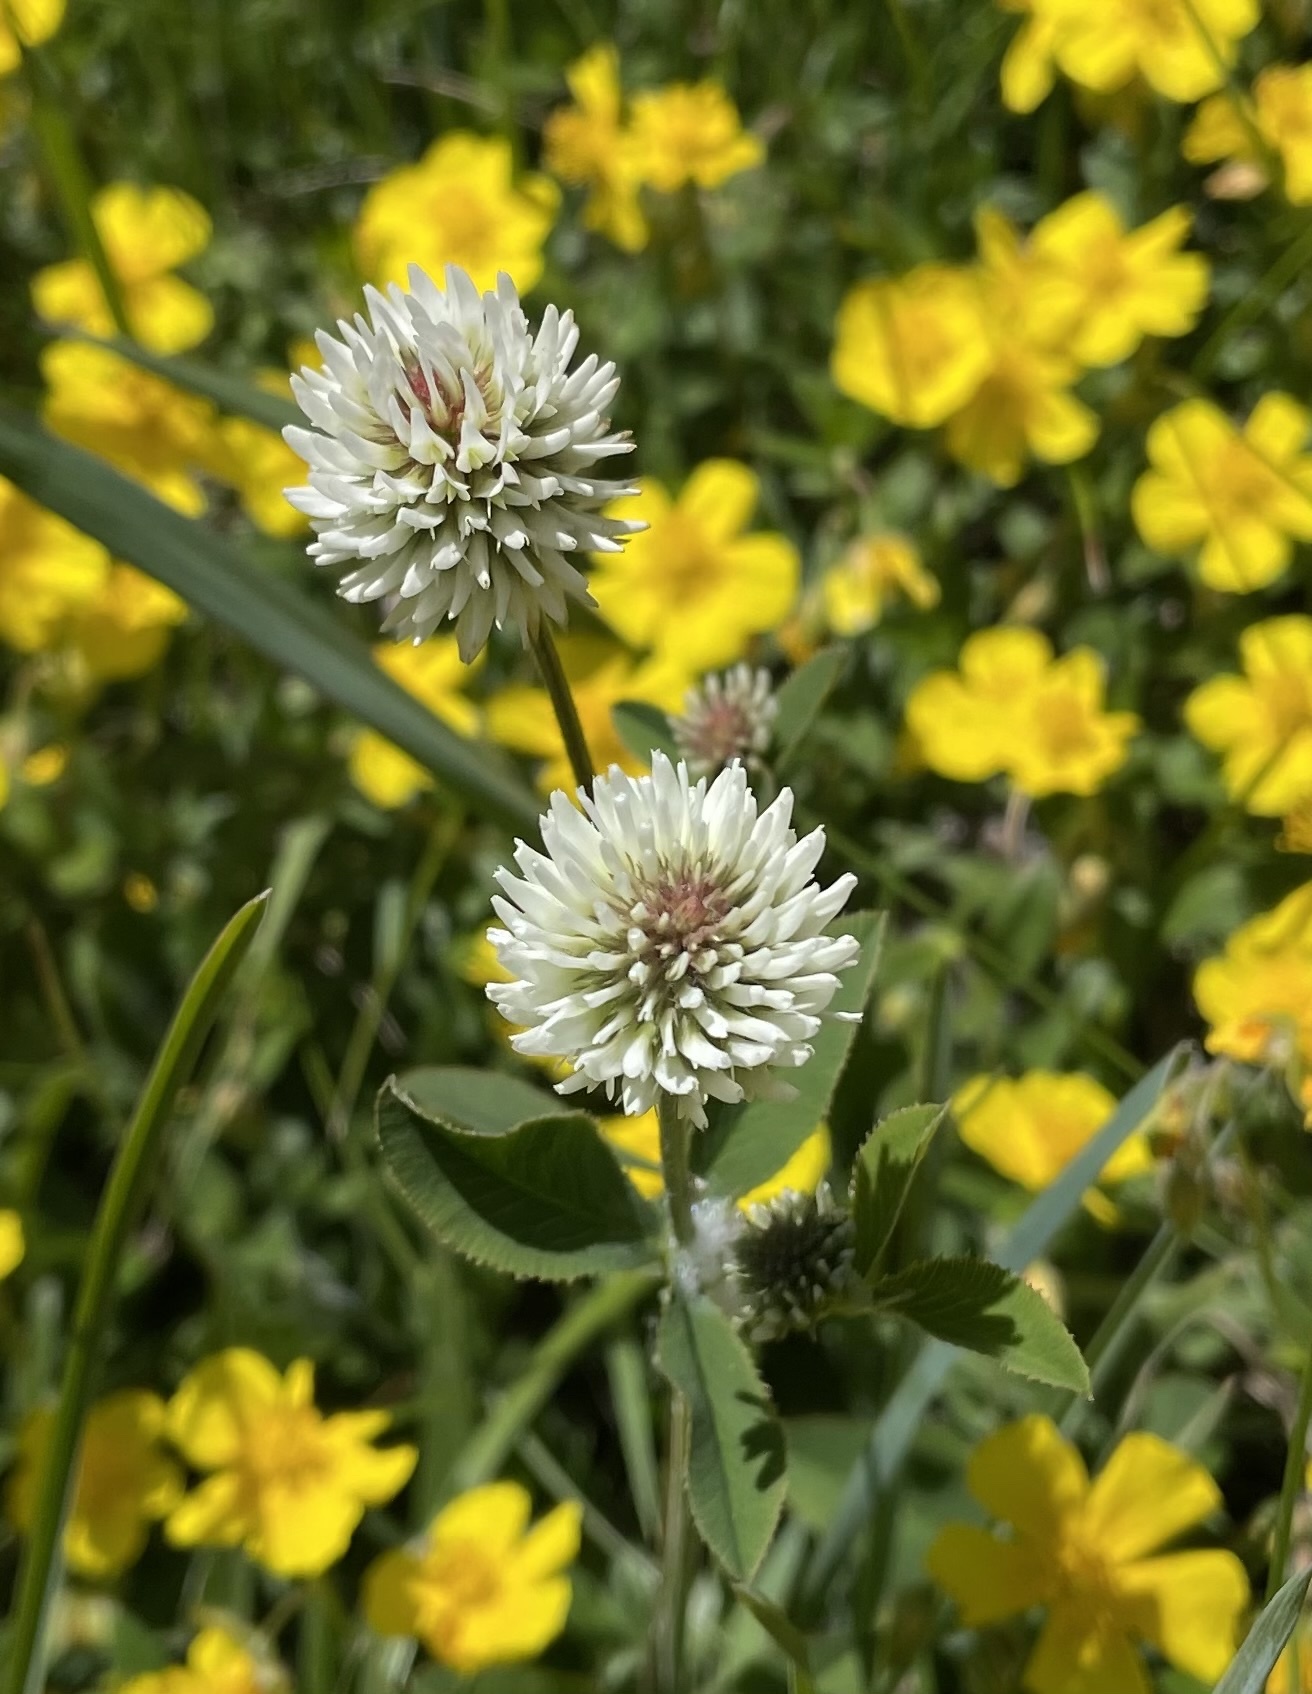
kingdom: Plantae
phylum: Tracheophyta
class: Magnoliopsida
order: Fabales
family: Fabaceae
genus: Trifolium
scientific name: Trifolium montanum
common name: Mountain clover
